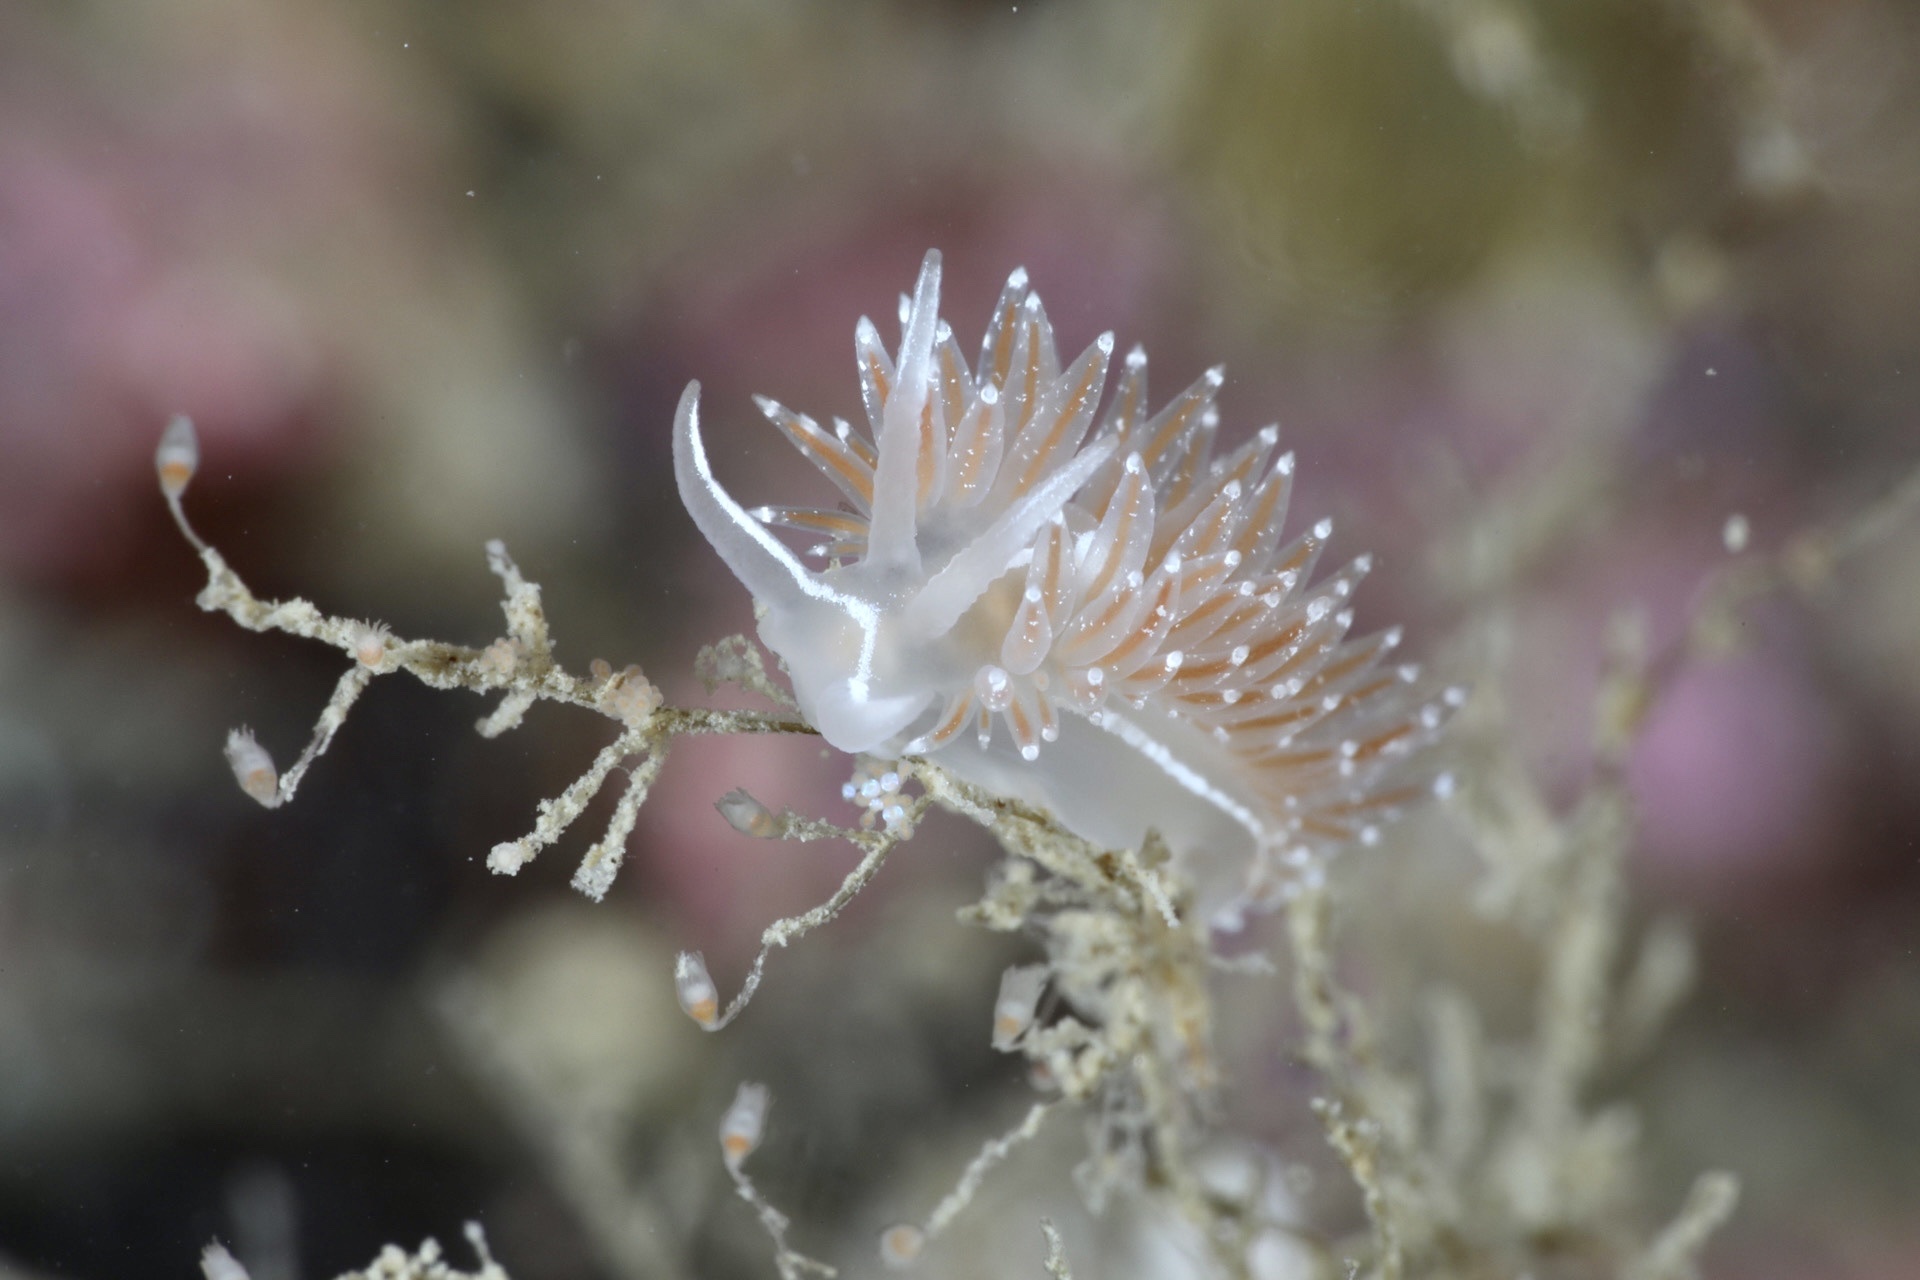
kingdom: Animalia
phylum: Mollusca
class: Gastropoda
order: Nudibranchia
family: Coryphellidae
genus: Coryphella
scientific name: Coryphella orjani
